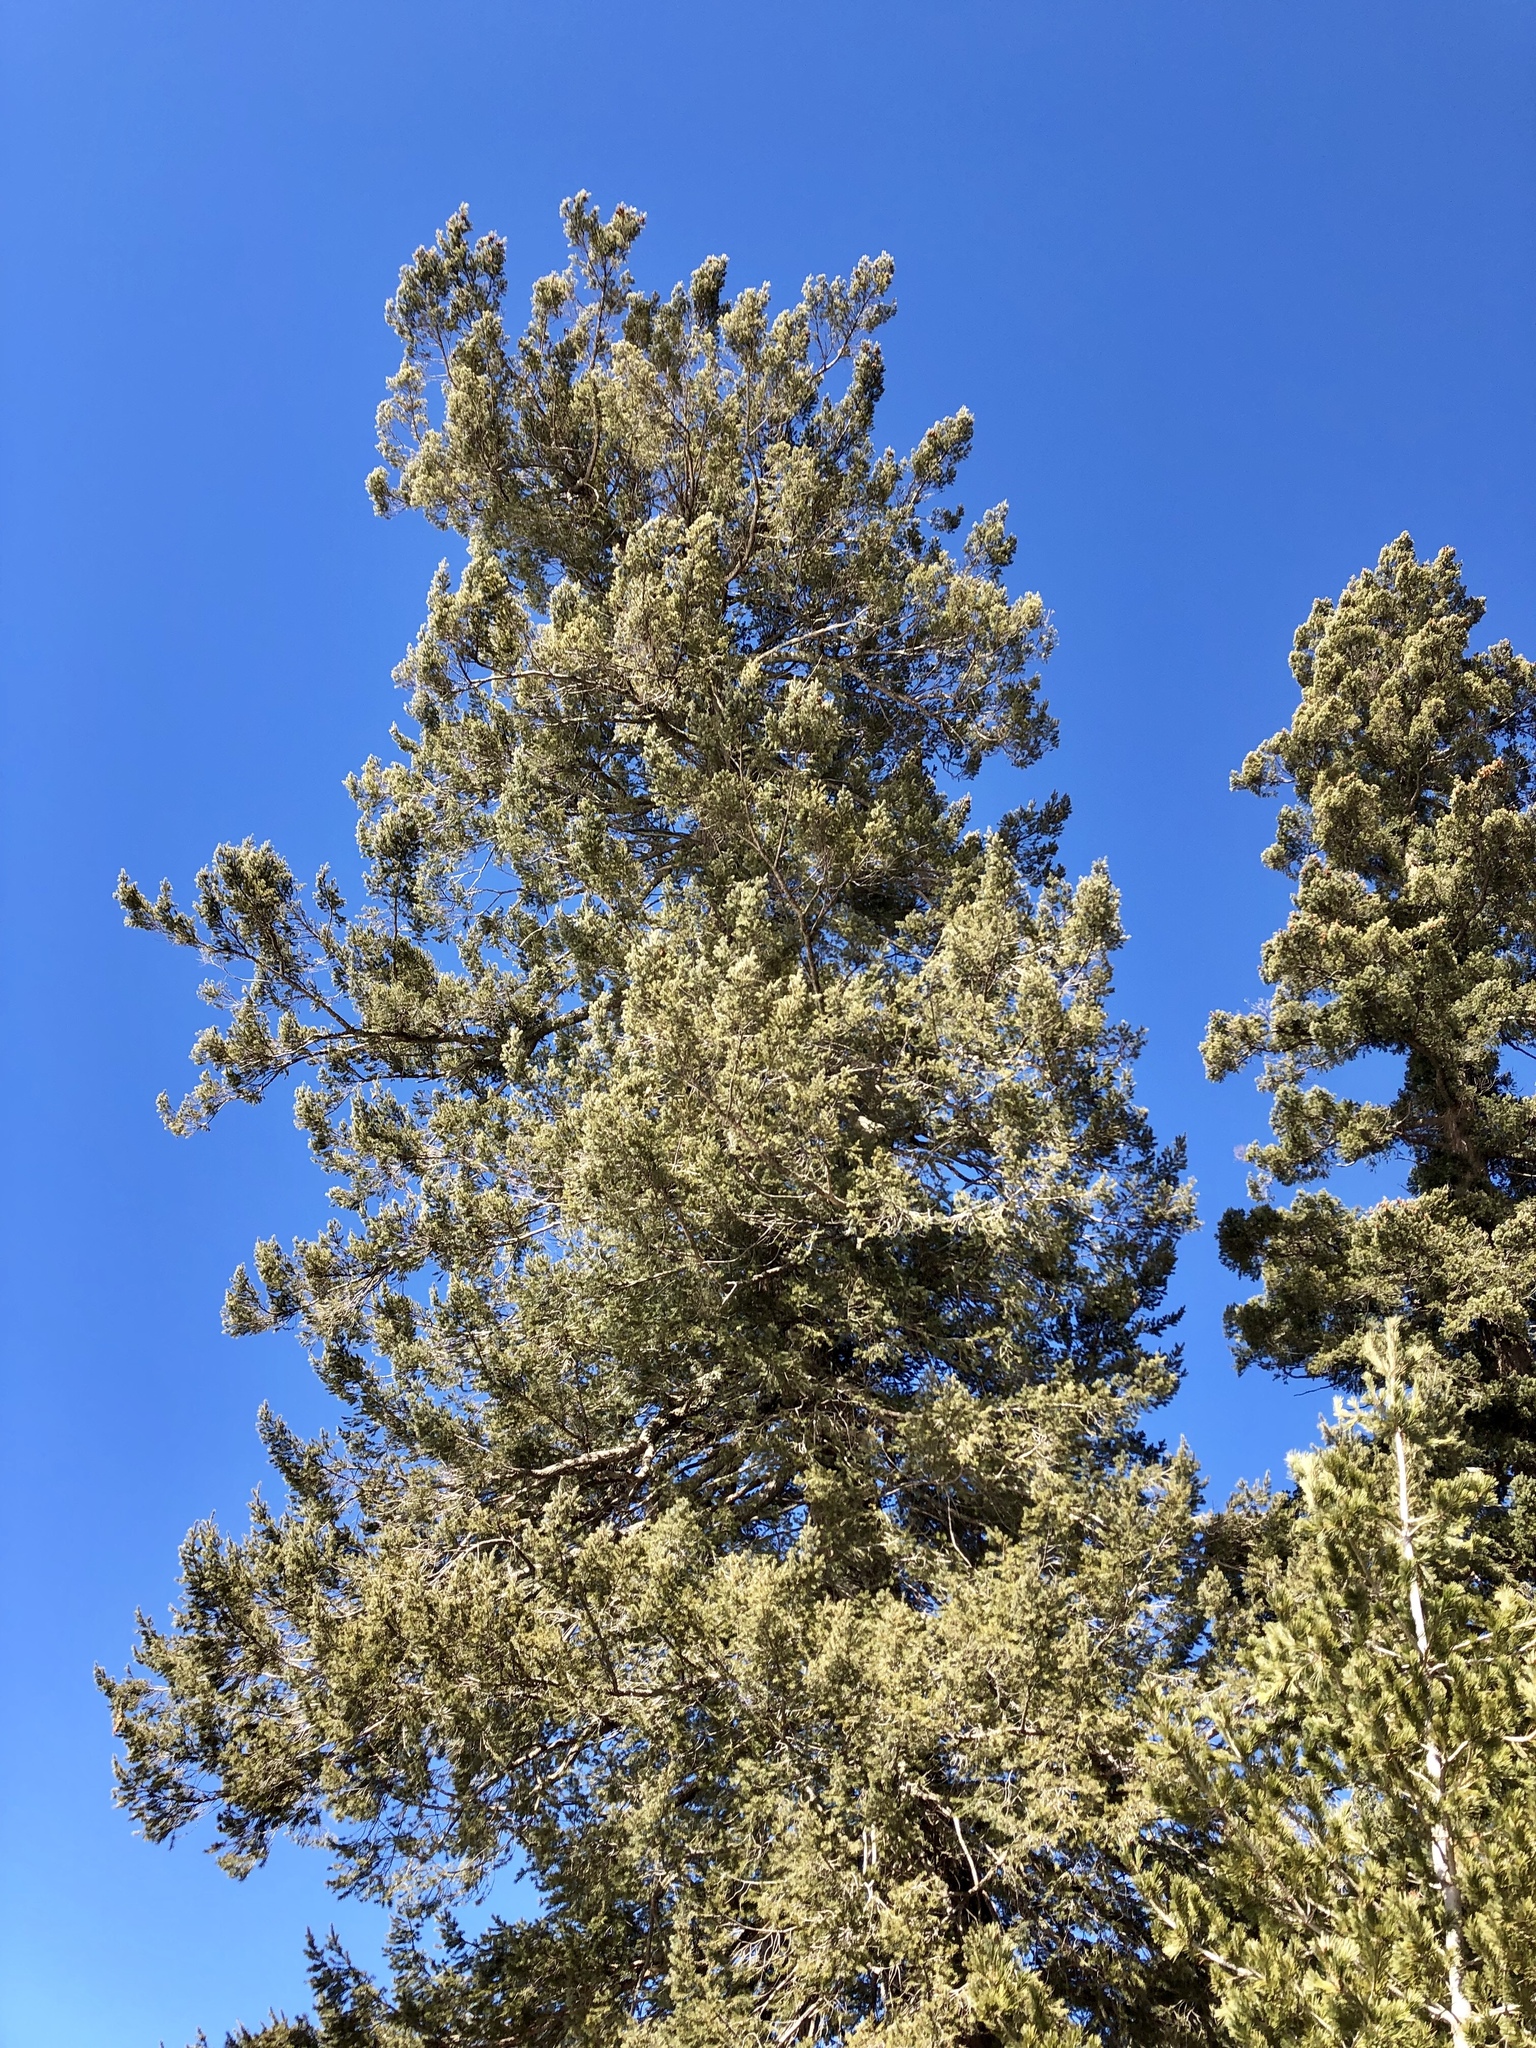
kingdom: Plantae
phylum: Tracheophyta
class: Pinopsida
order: Pinales
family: Pinaceae
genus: Pseudotsuga
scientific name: Pseudotsuga menziesii
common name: Douglas fir
